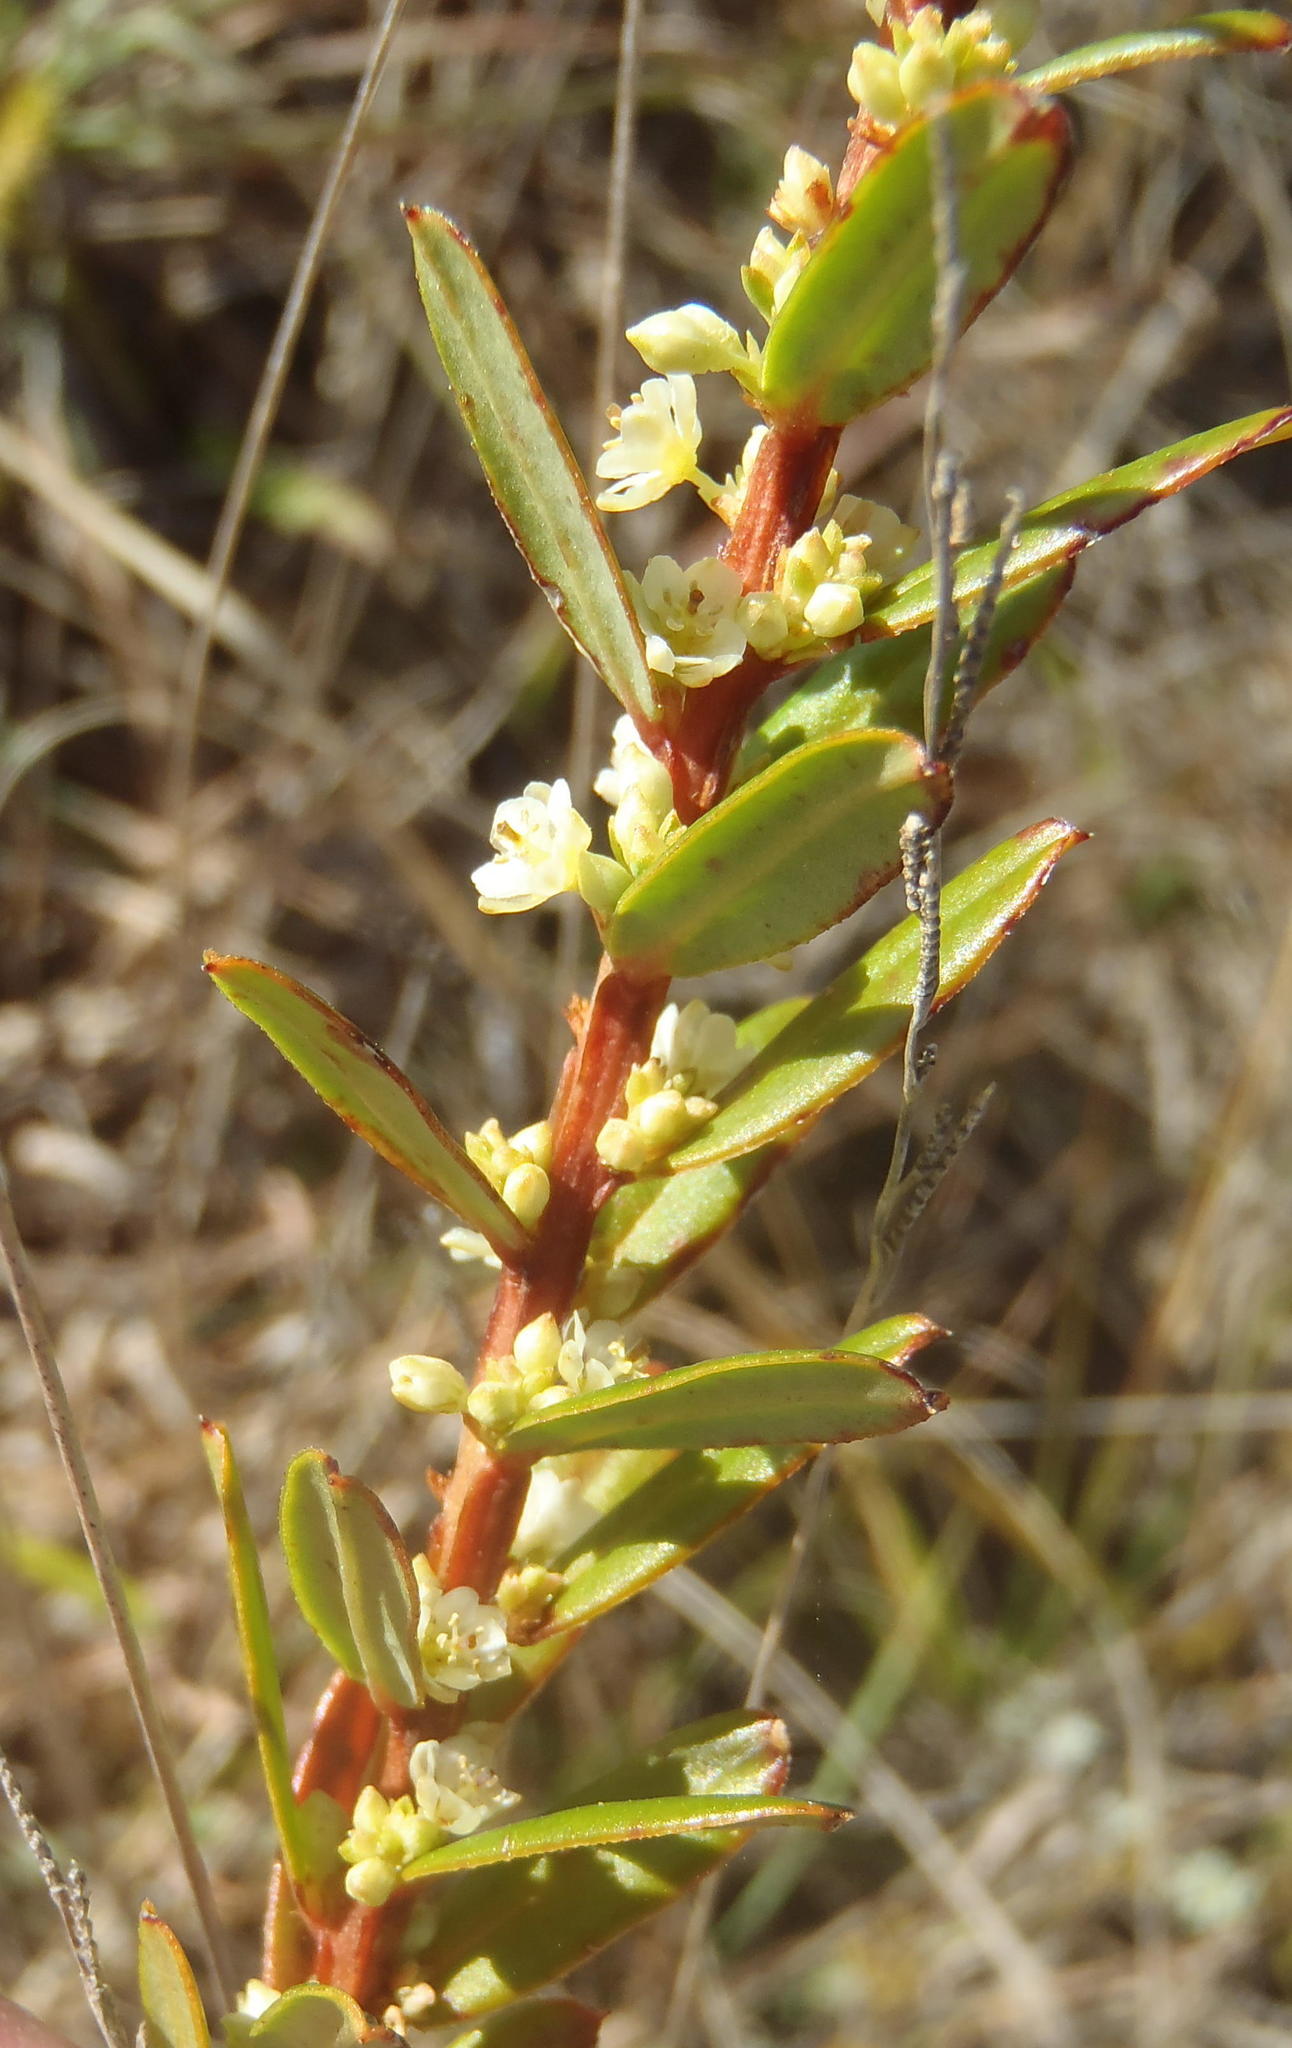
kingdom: Plantae
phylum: Tracheophyta
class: Magnoliopsida
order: Malpighiales
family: Peraceae
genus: Clutia
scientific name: Clutia polifolia
